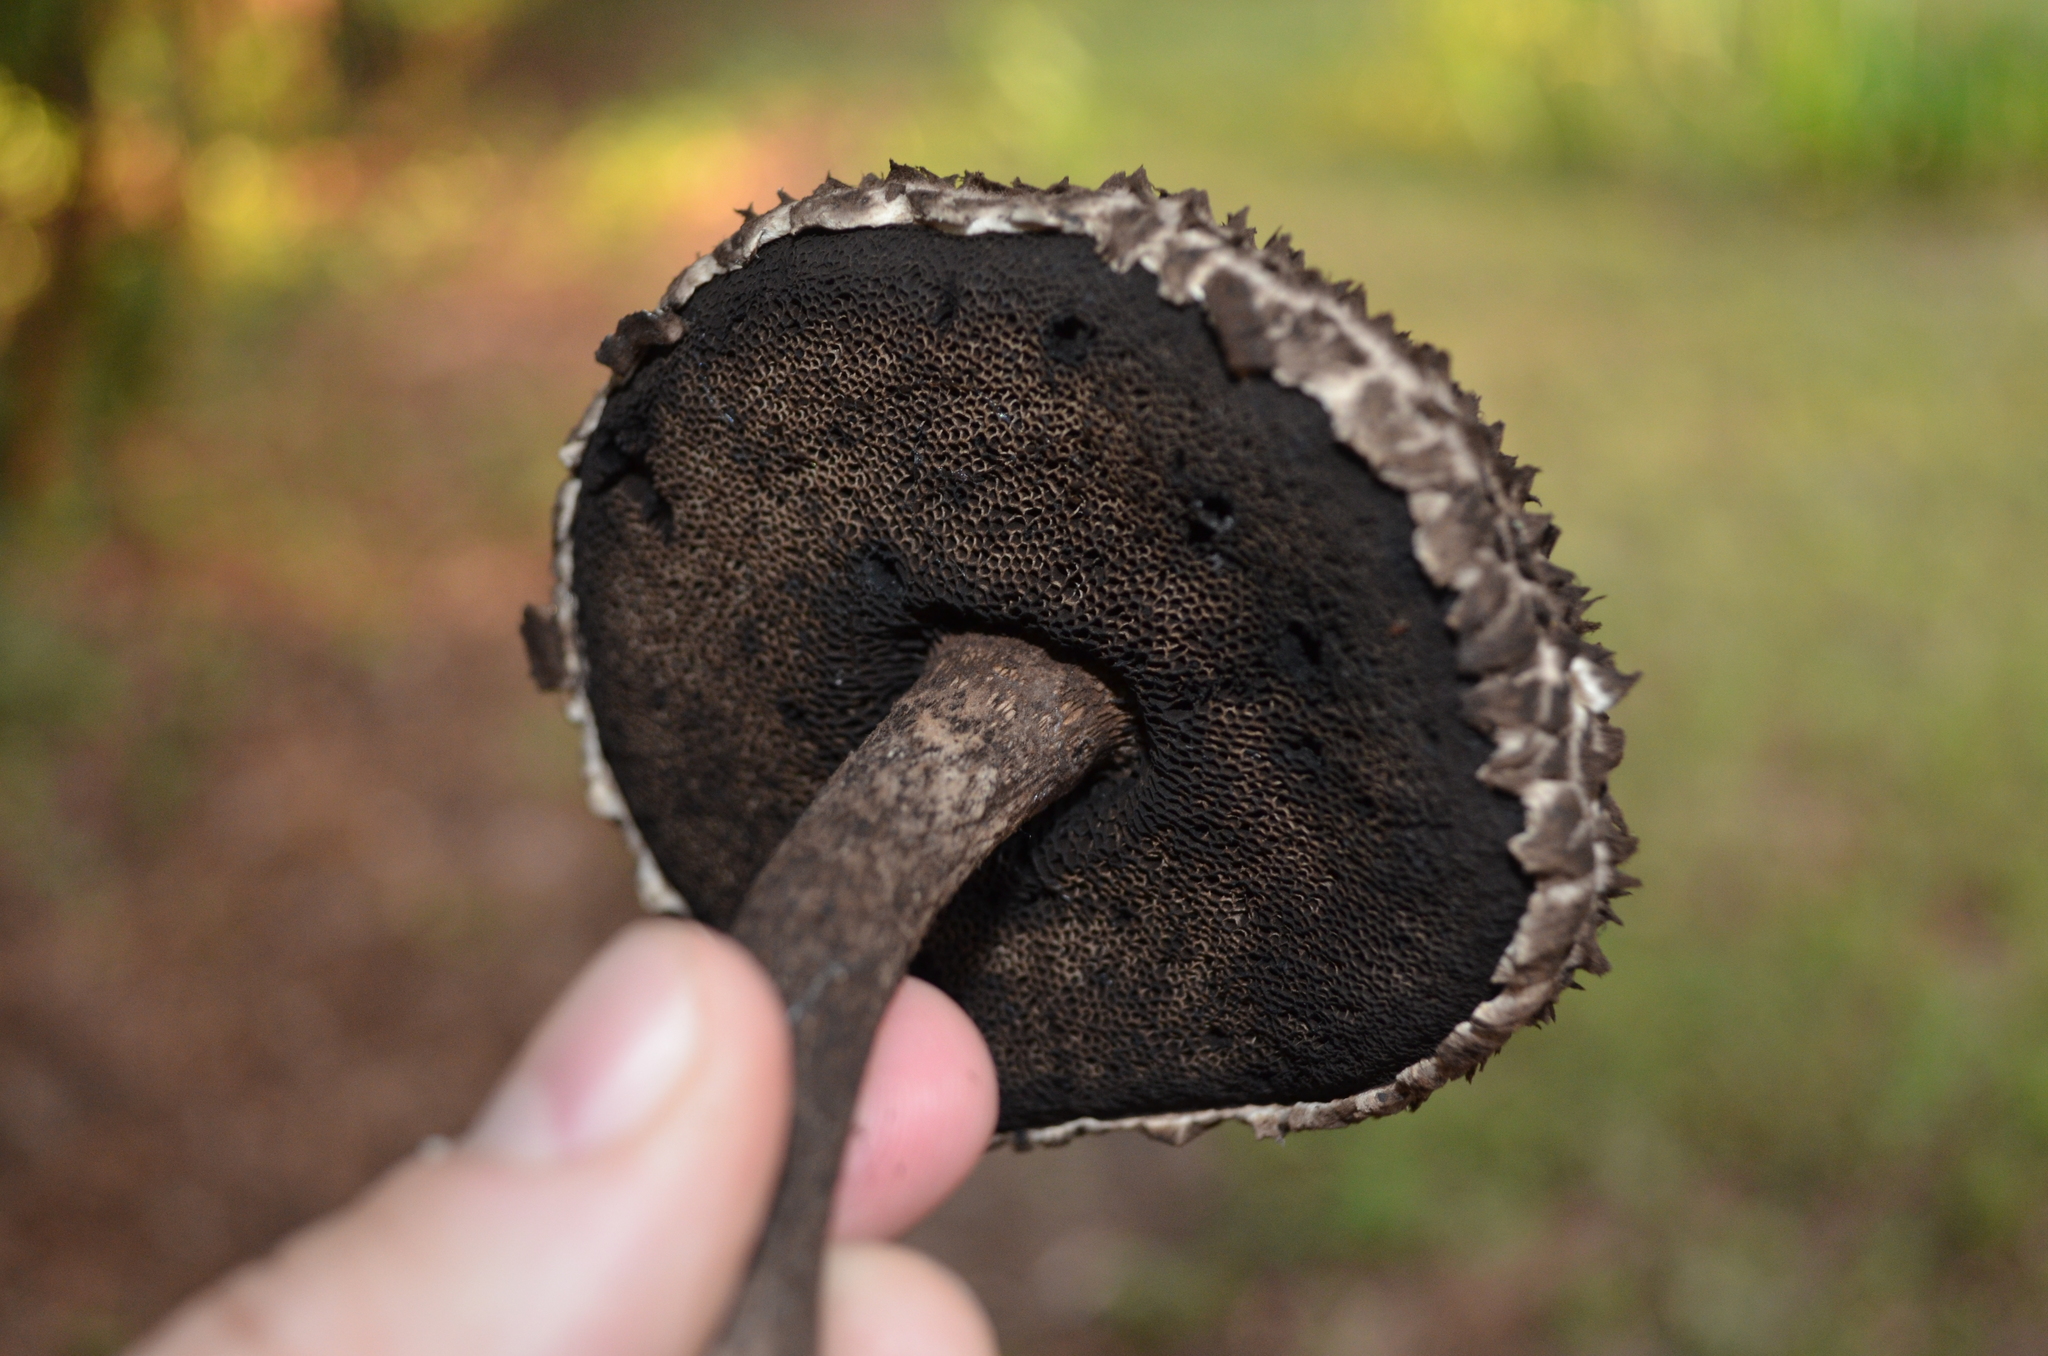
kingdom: Fungi
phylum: Basidiomycota
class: Agaricomycetes
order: Boletales
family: Boletaceae
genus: Strobilomyces
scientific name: Strobilomyces strobilaceus
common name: Old man of the woods
